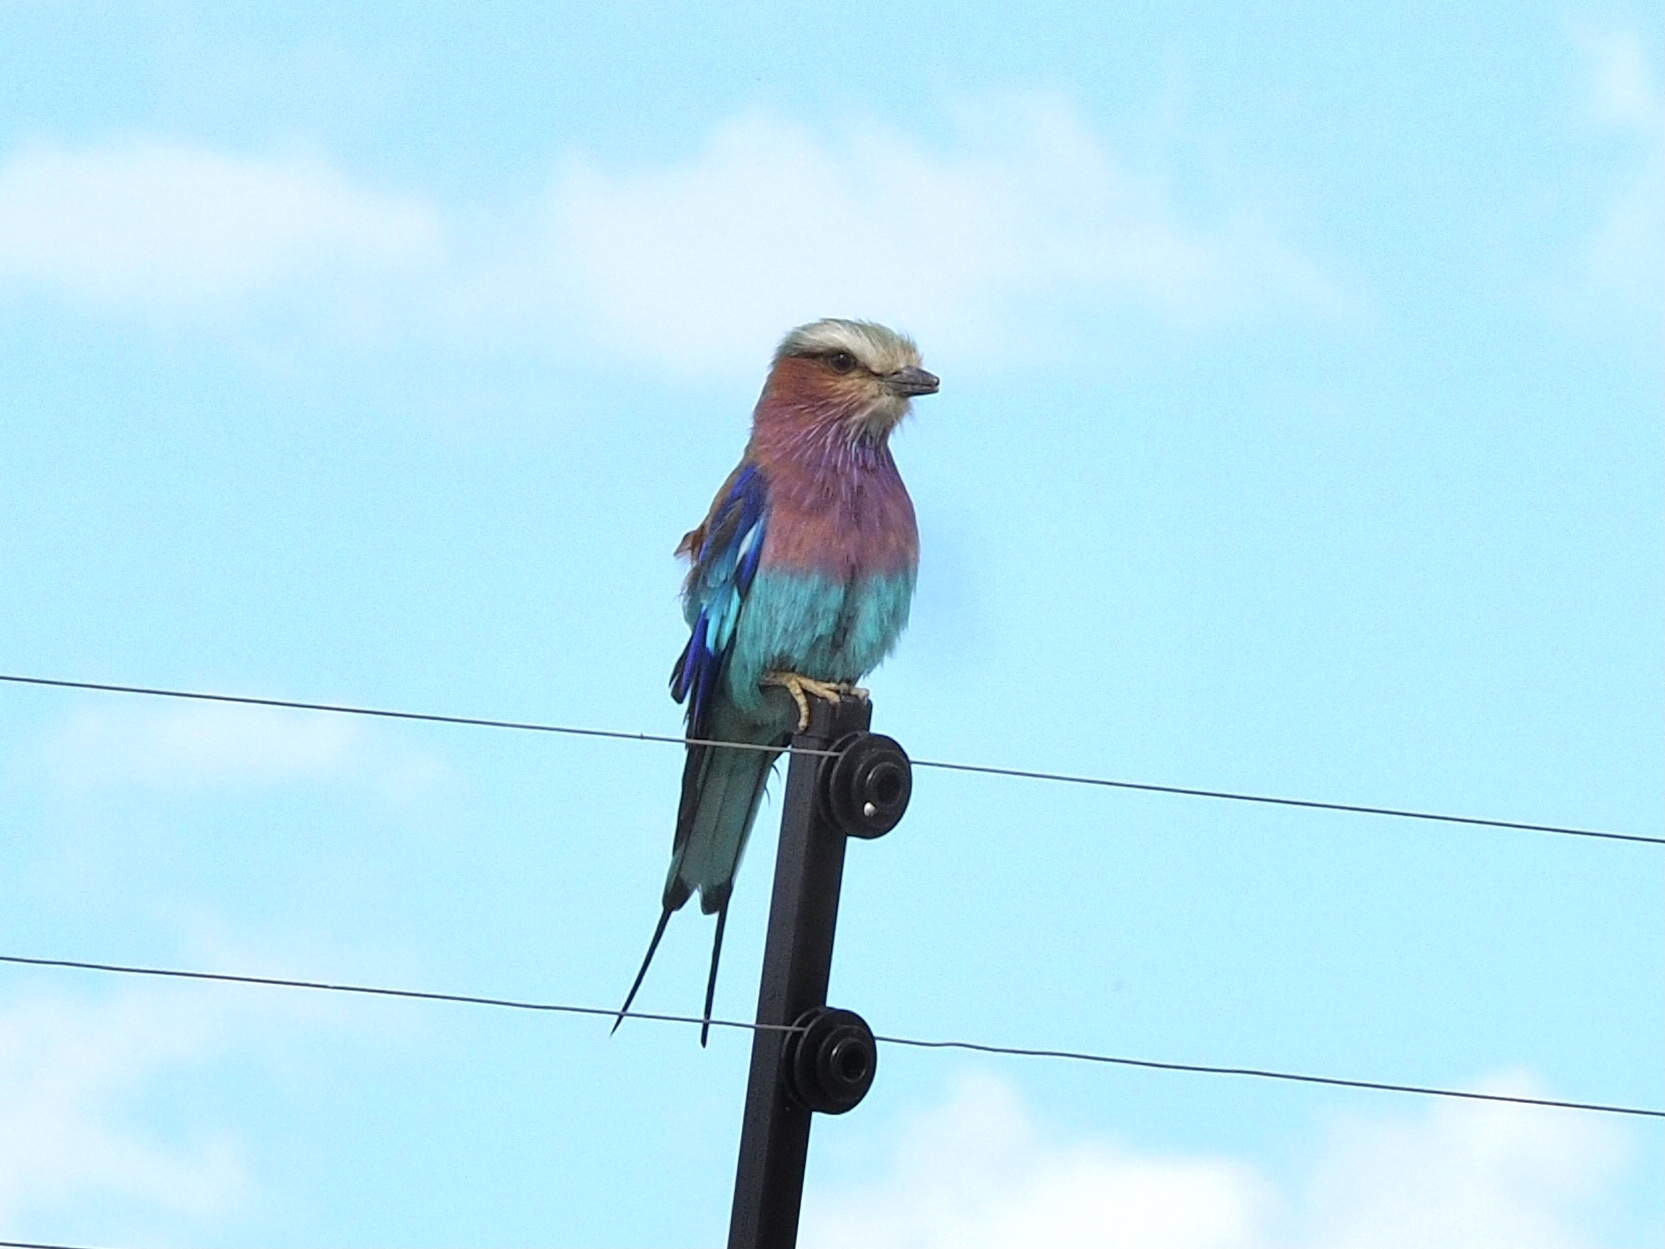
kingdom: Animalia
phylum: Chordata
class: Aves
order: Coraciiformes
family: Coraciidae
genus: Coracias
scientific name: Coracias caudatus
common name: Lilac-breasted roller
